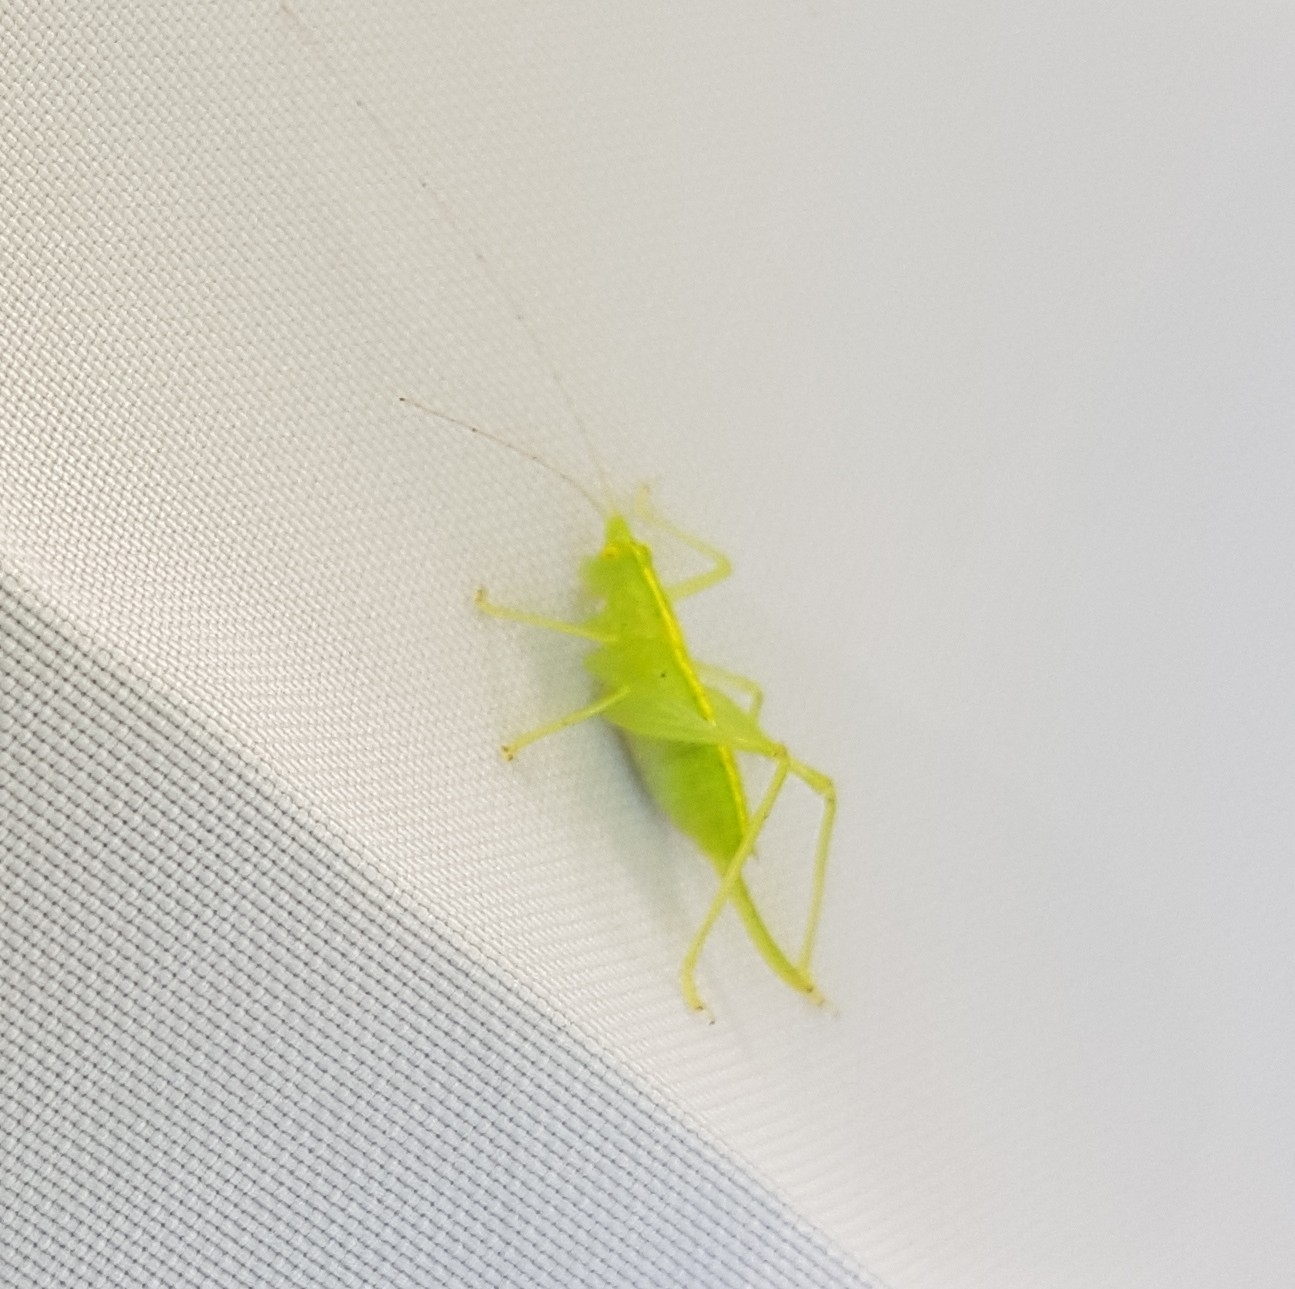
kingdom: Animalia
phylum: Arthropoda
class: Insecta
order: Orthoptera
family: Tettigoniidae
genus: Meconema
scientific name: Meconema meridionale
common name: Southern oak bush-cricket
